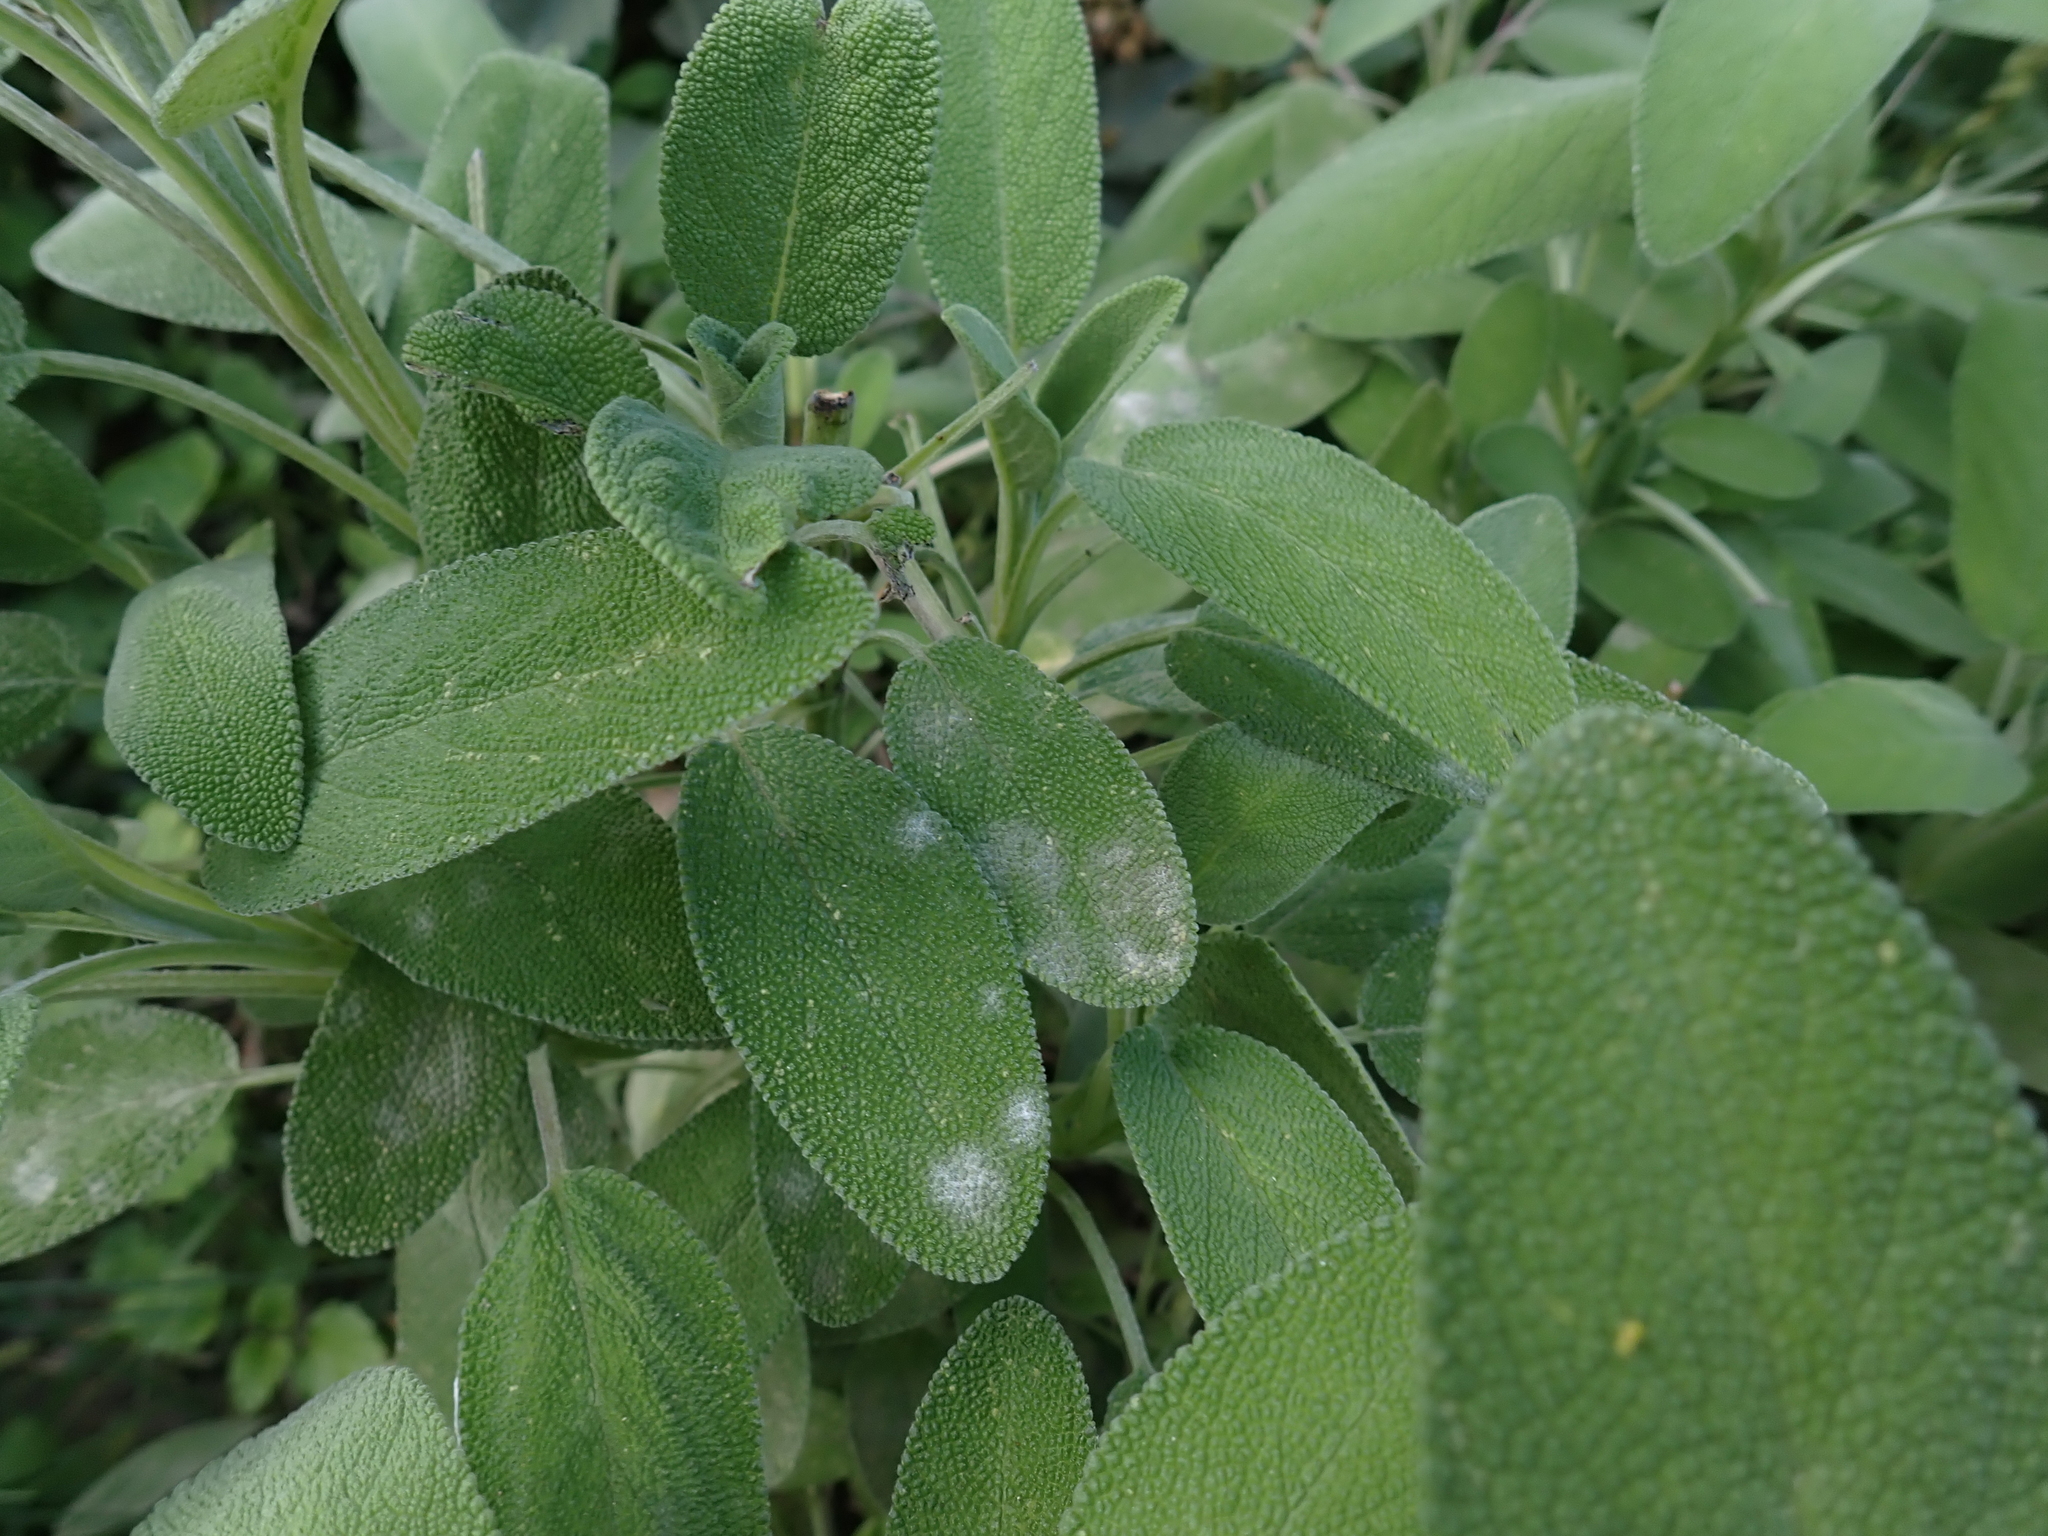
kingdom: Fungi
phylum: Ascomycota
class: Leotiomycetes
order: Helotiales
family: Erysiphaceae
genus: Golovinomyces
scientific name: Golovinomyces neosalviae
